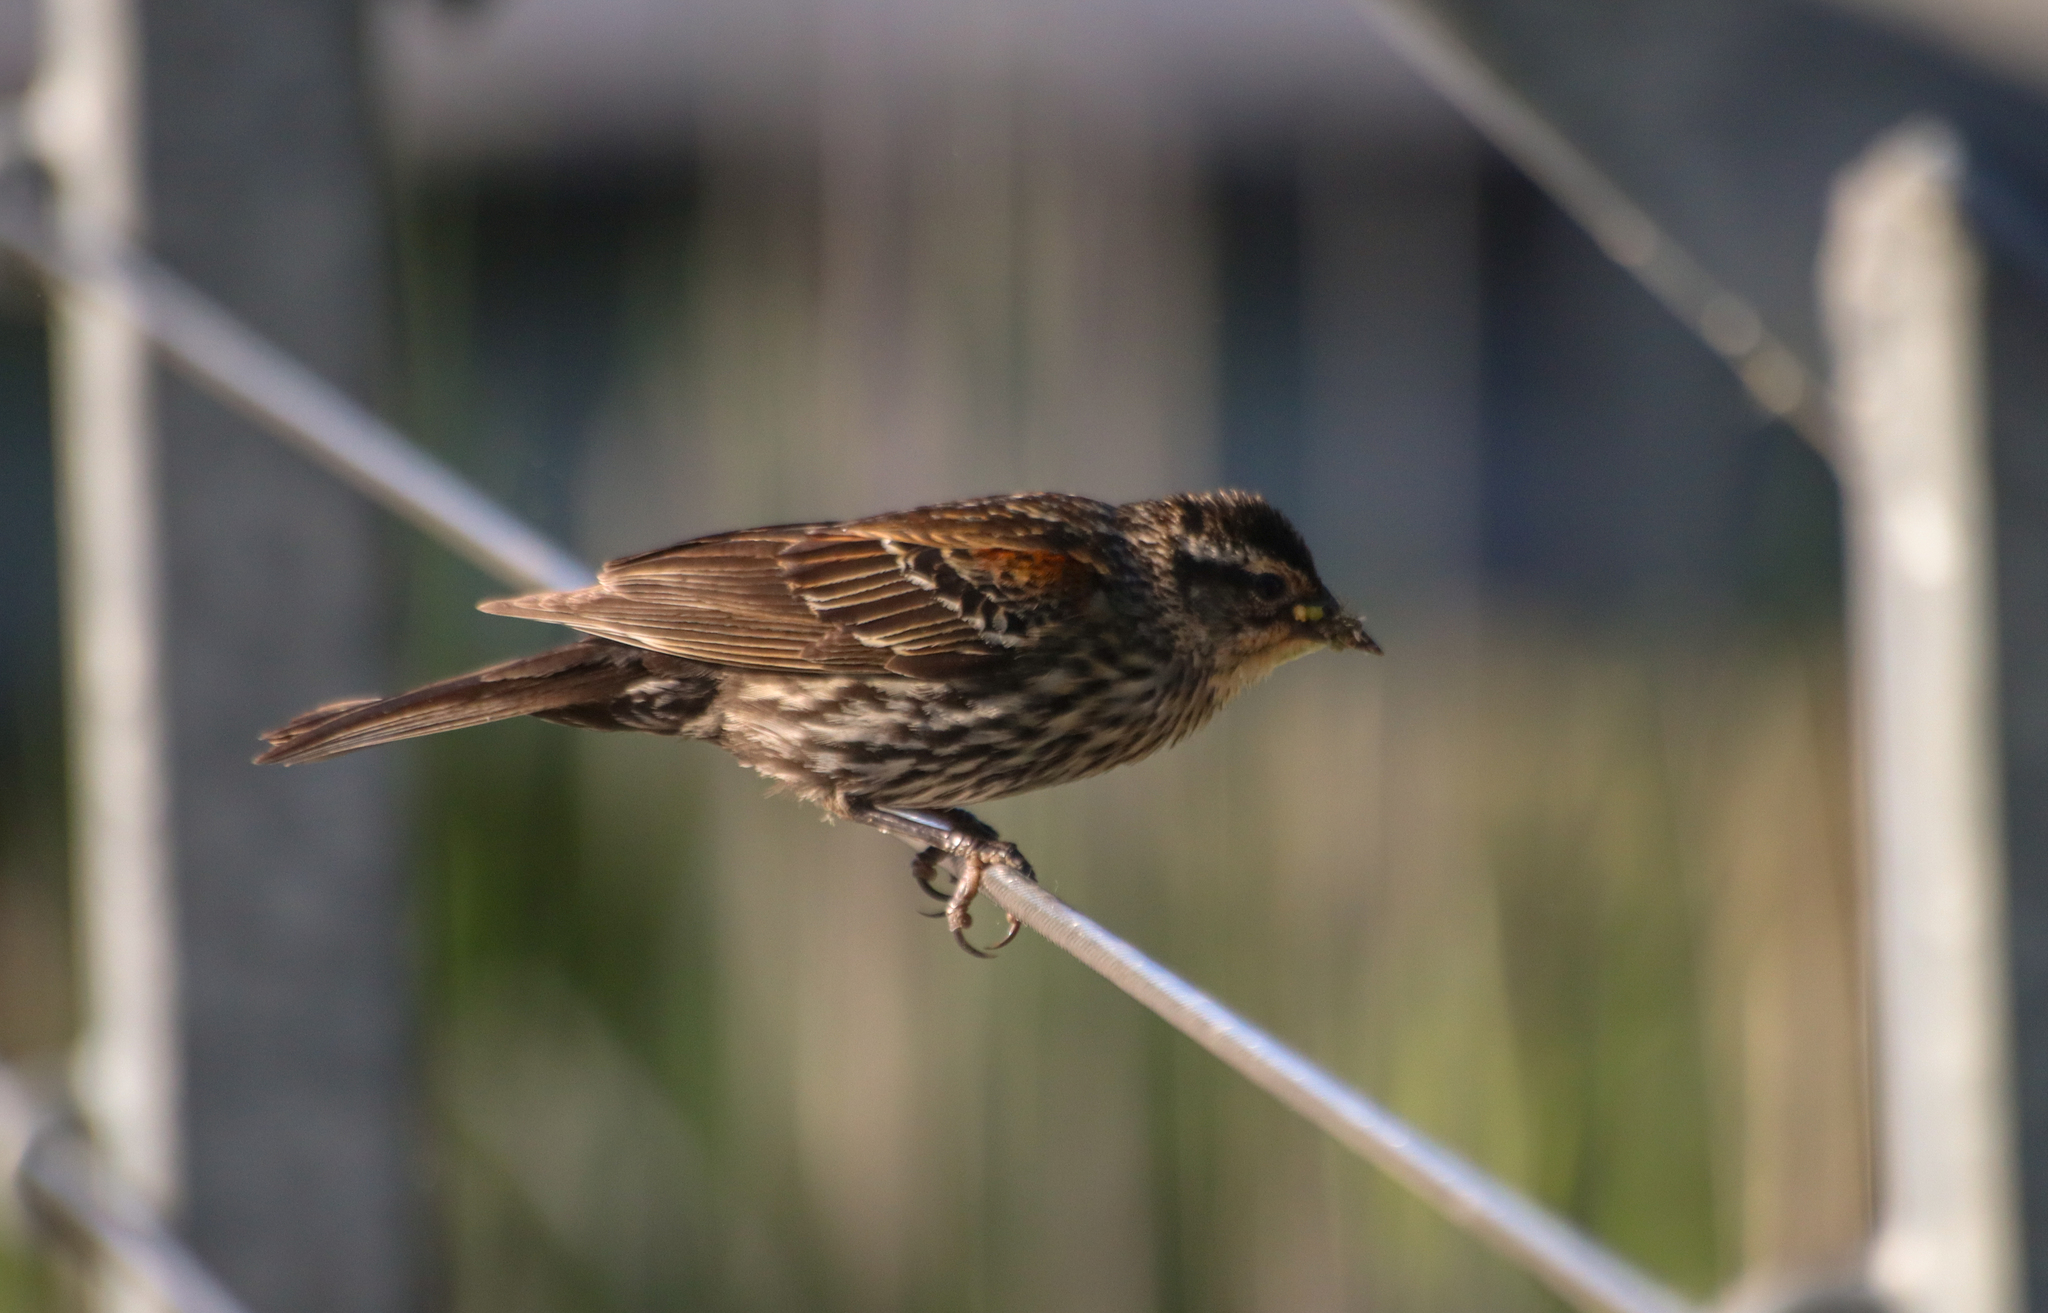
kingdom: Animalia
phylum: Chordata
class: Aves
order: Passeriformes
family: Icteridae
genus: Agelaius
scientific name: Agelaius phoeniceus
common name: Red-winged blackbird
